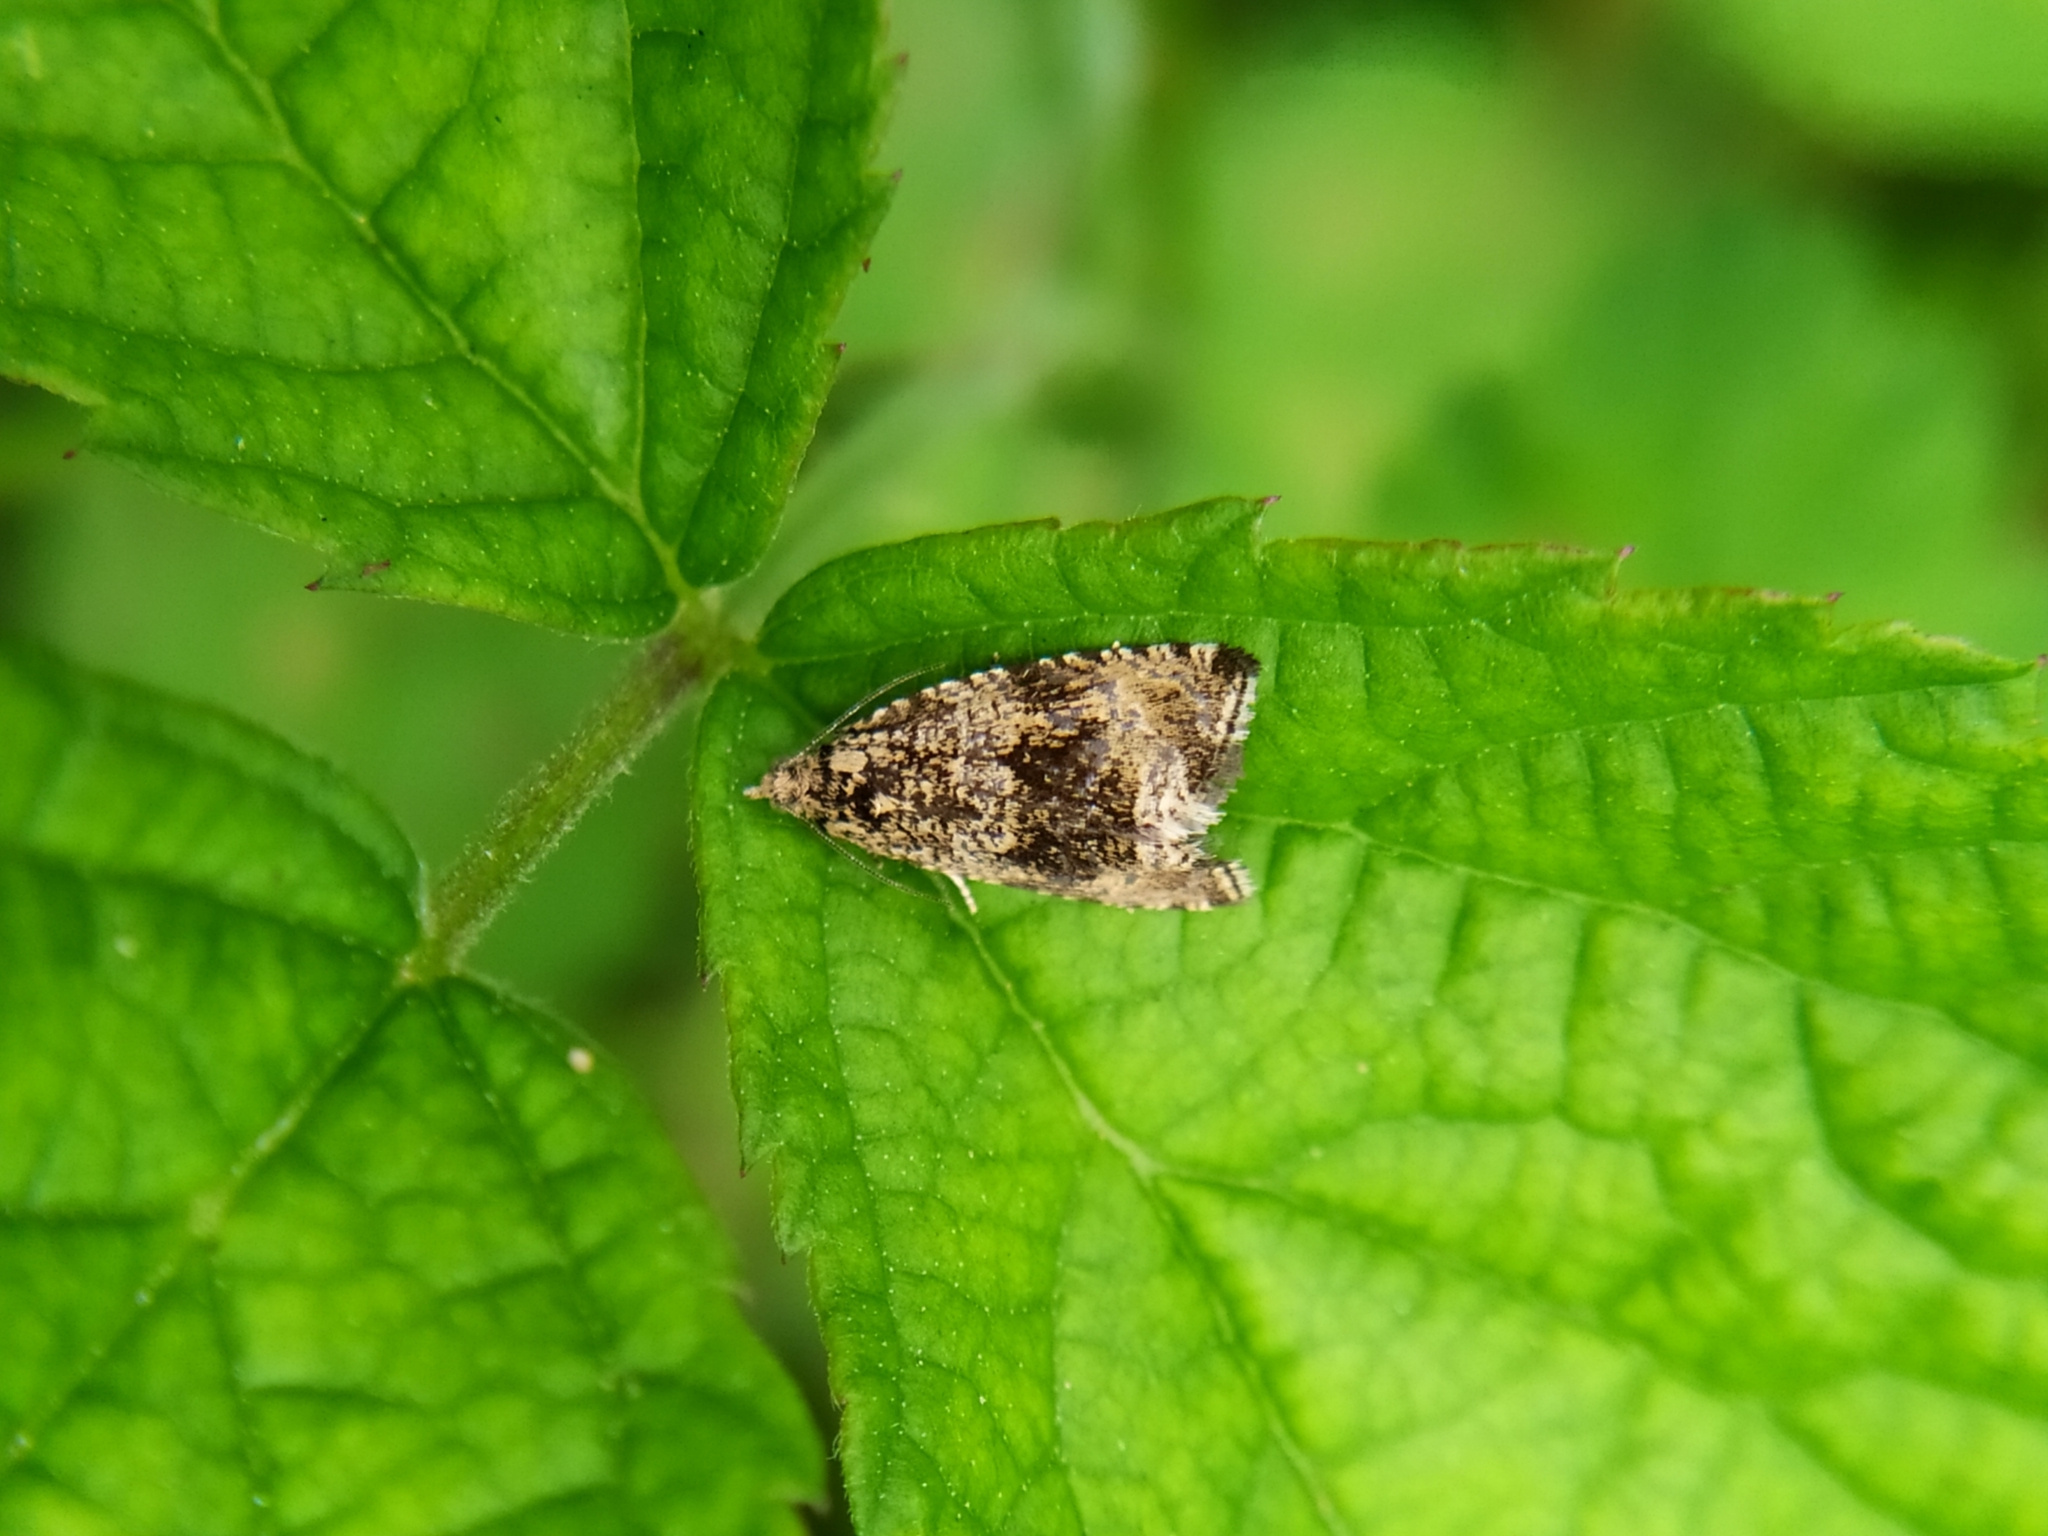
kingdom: Animalia
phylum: Arthropoda
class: Insecta
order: Lepidoptera
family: Tortricidae
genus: Syricoris
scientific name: Syricoris lacunana
